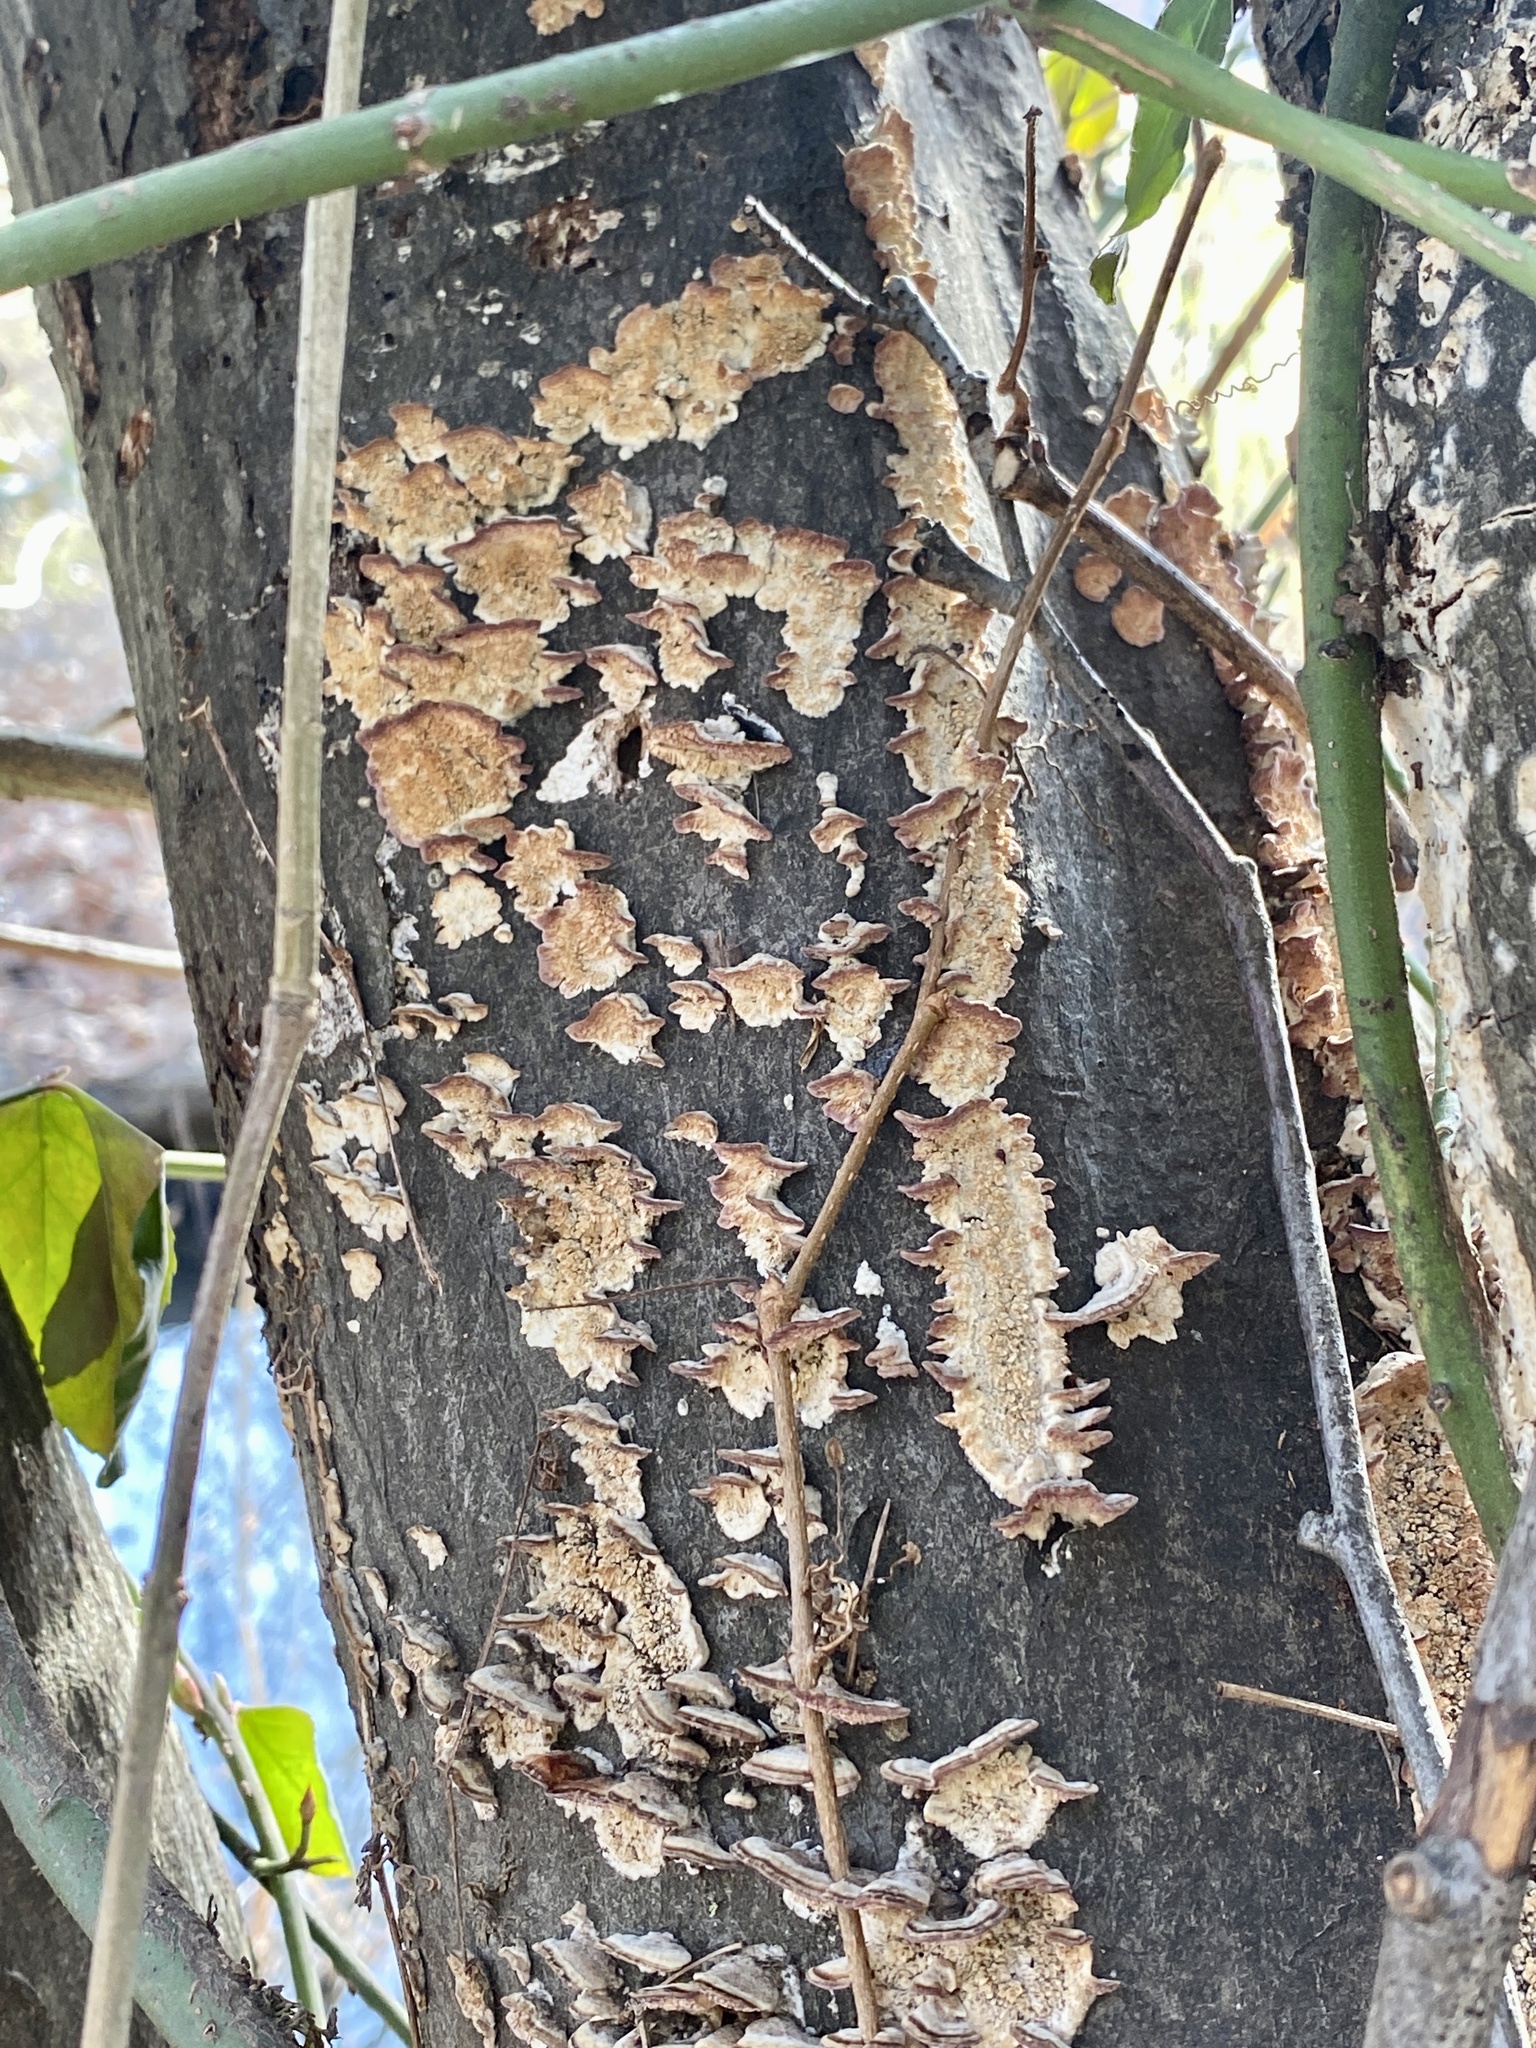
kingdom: Fungi
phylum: Basidiomycota
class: Agaricomycetes
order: Hymenochaetales
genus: Trichaptum
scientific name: Trichaptum biforme
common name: Violet-toothed polypore
